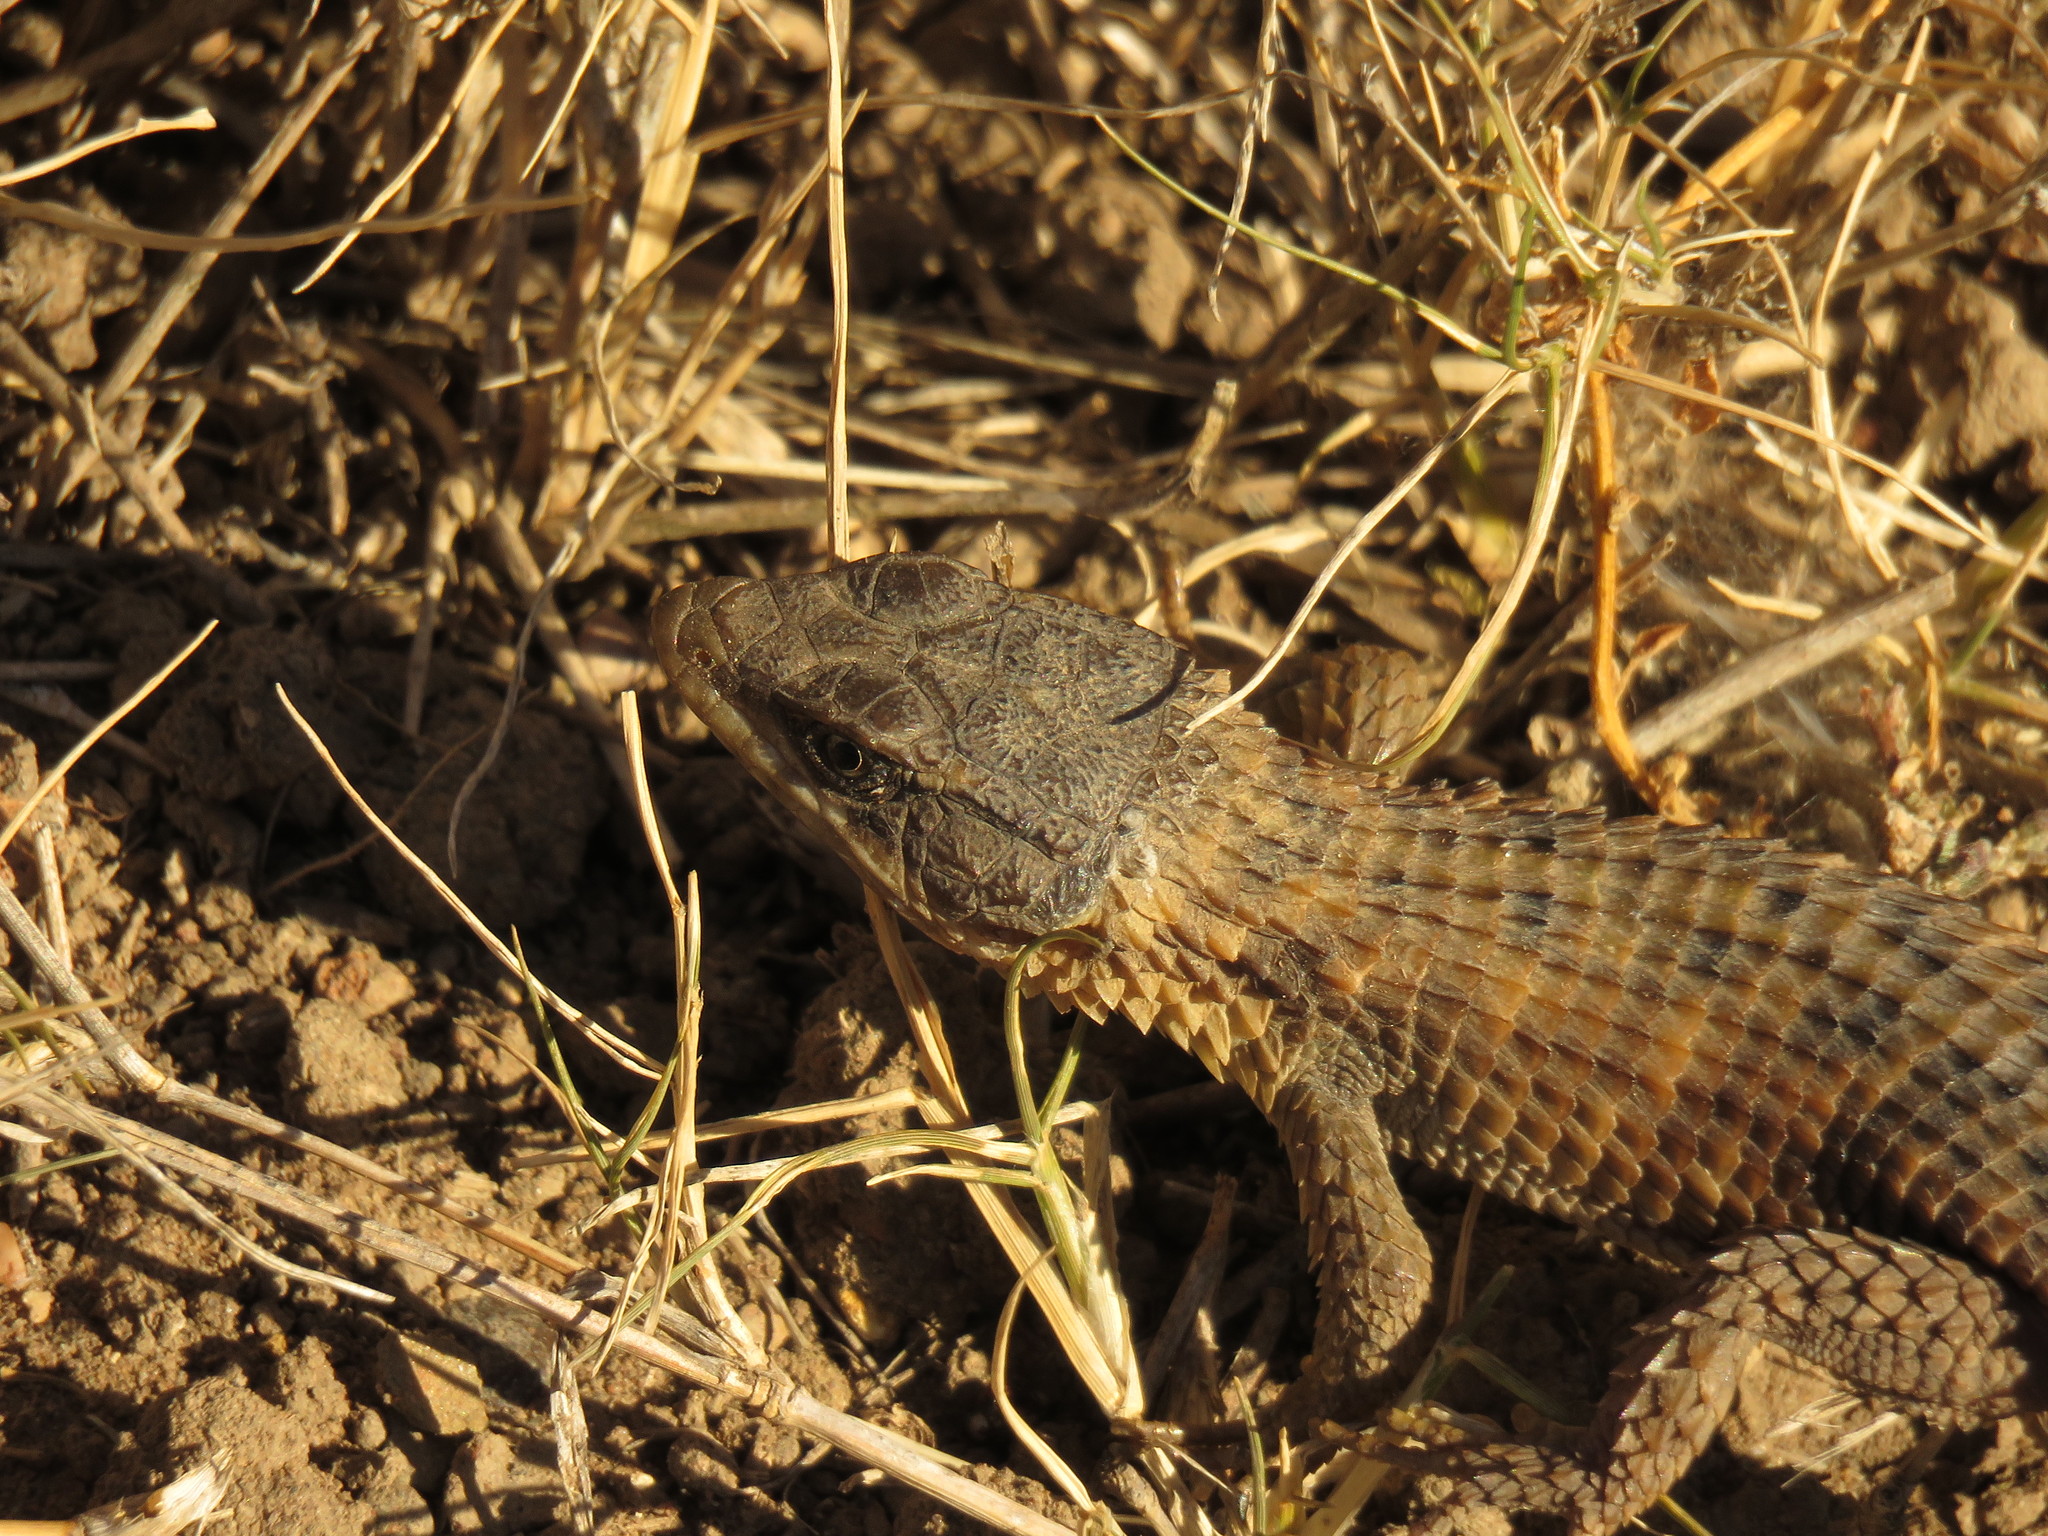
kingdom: Animalia
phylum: Chordata
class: Squamata
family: Cordylidae
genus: Cordylus
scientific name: Cordylus cordylus
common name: Cape girdled lizard
